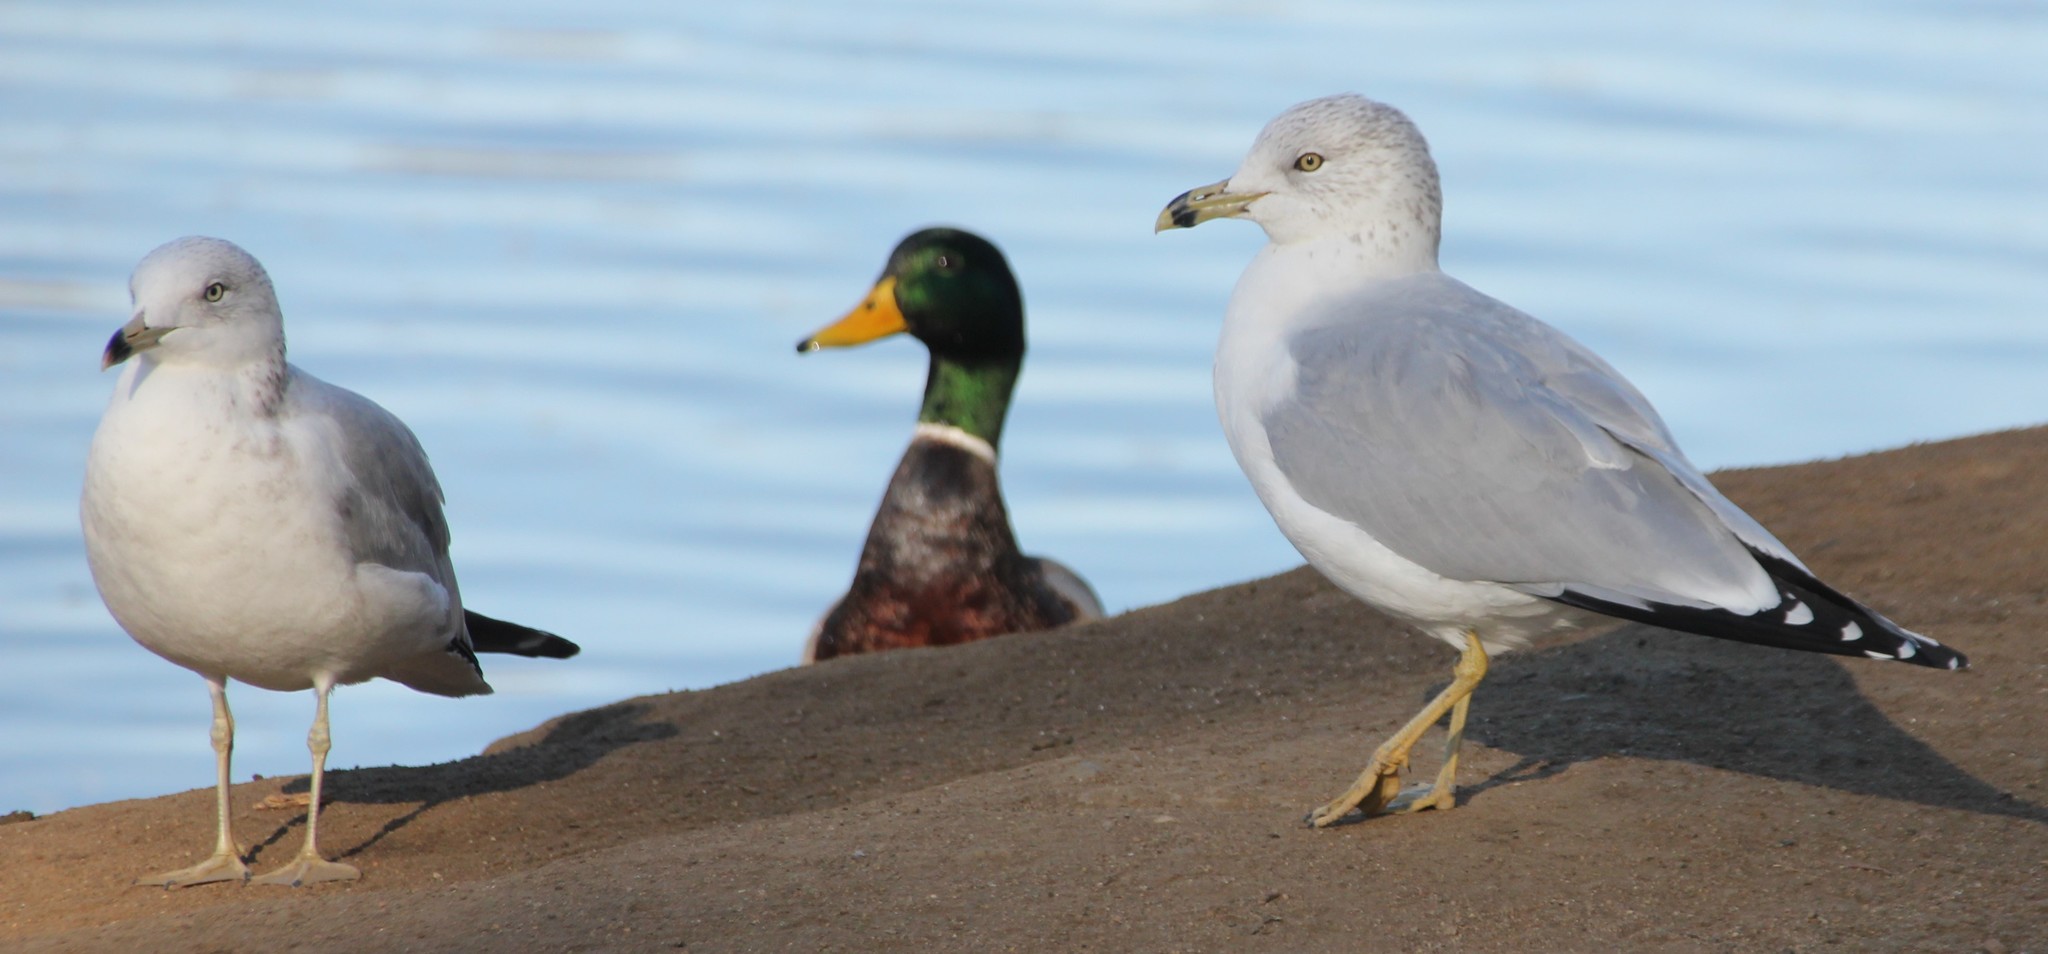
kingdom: Animalia
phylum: Chordata
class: Aves
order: Charadriiformes
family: Laridae
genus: Larus
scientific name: Larus delawarensis
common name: Ring-billed gull
